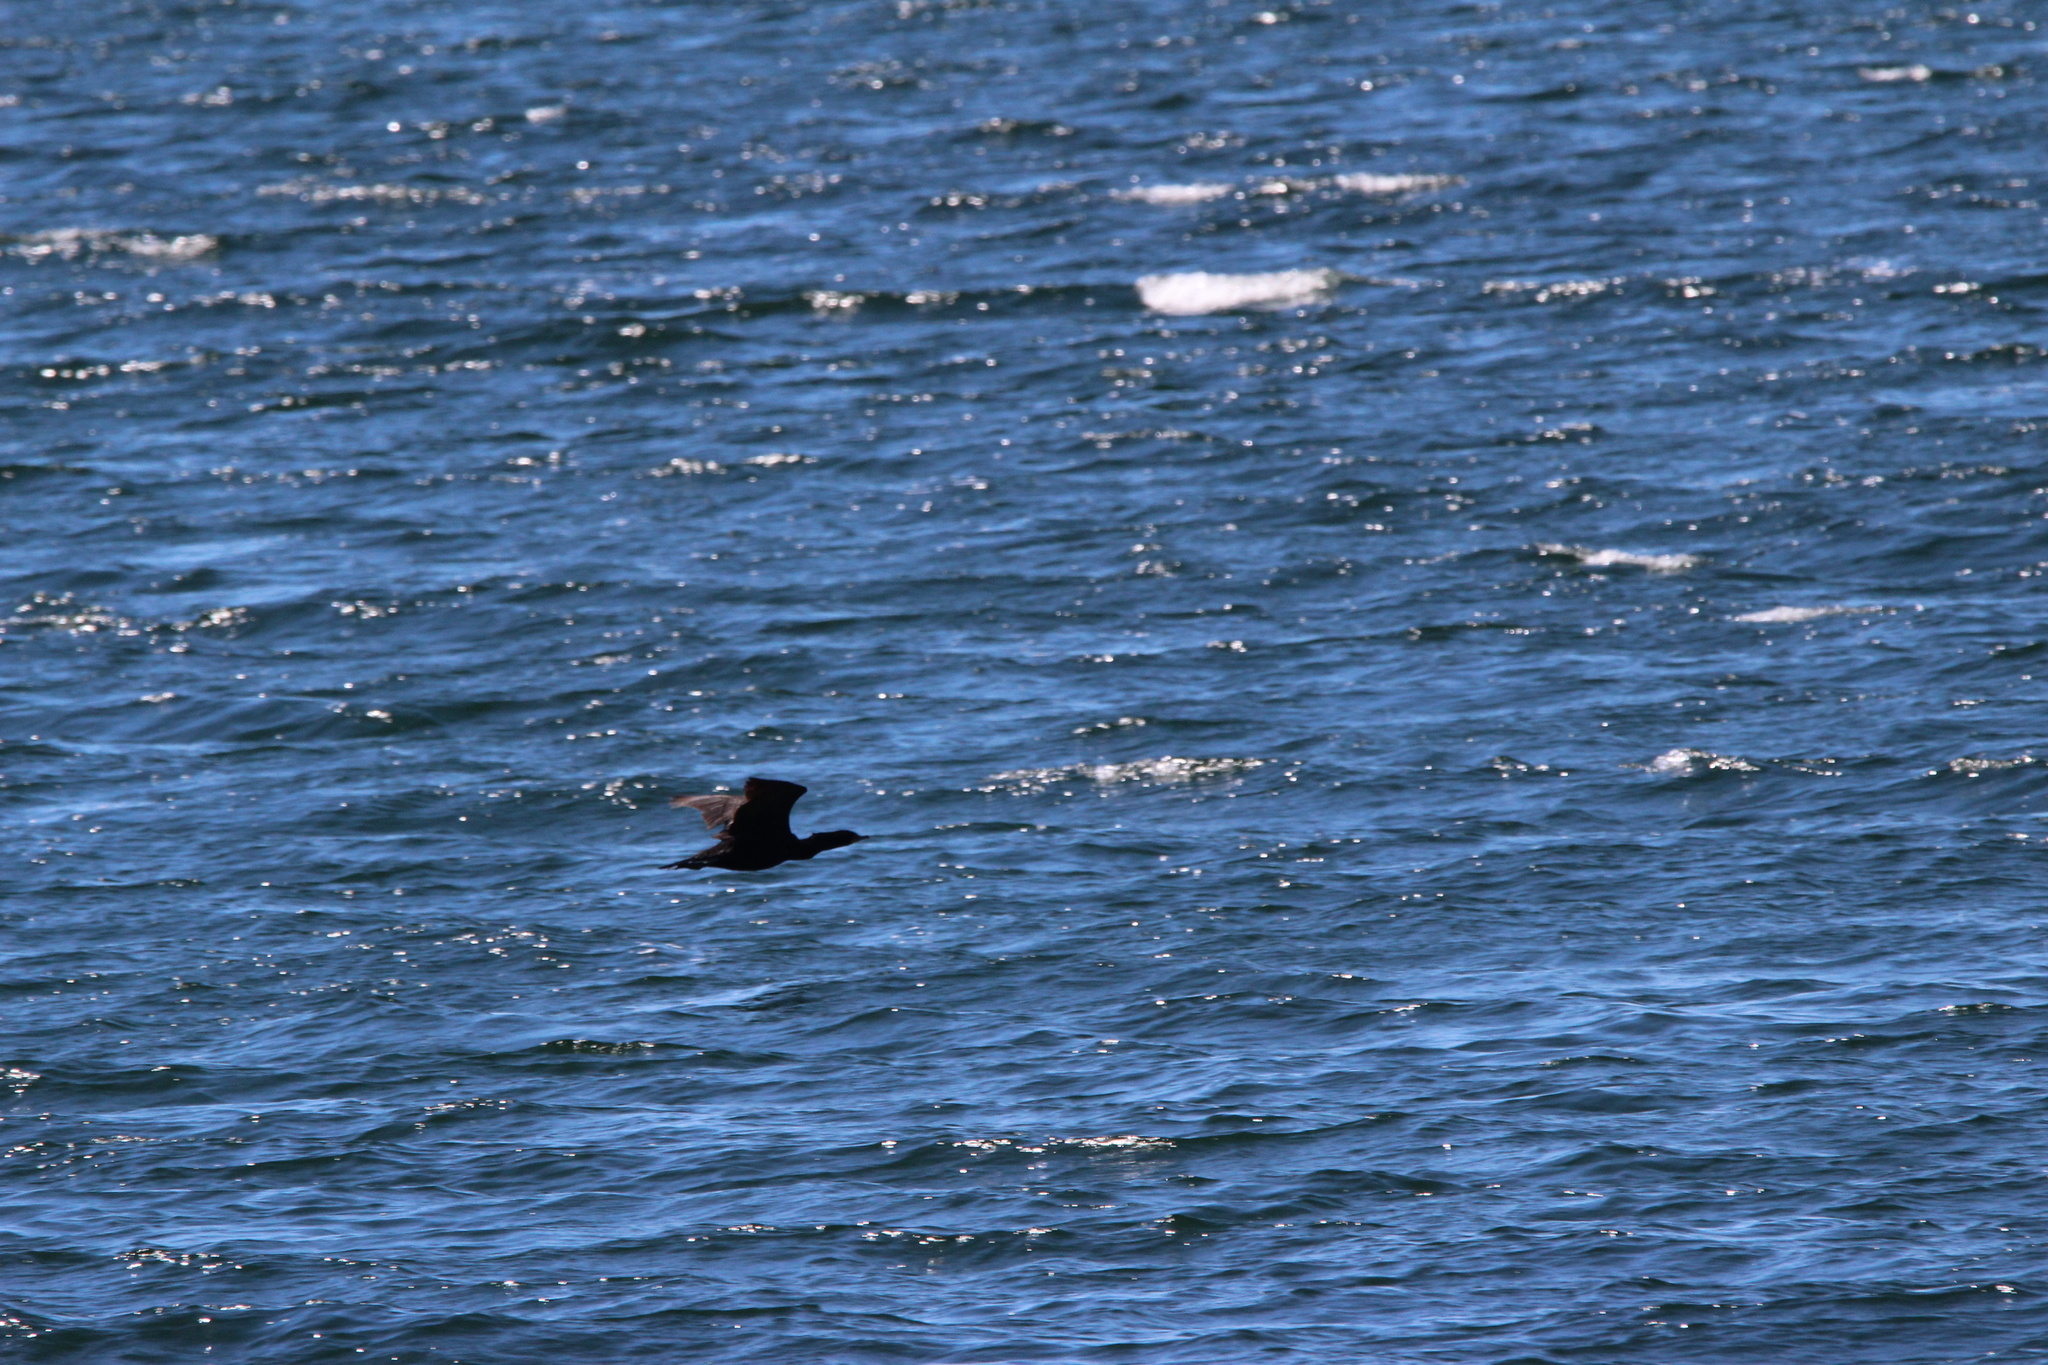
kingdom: Animalia
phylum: Chordata
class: Aves
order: Suliformes
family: Phalacrocoracidae
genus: Phalacrocorax
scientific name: Phalacrocorax auritus
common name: Double-crested cormorant
